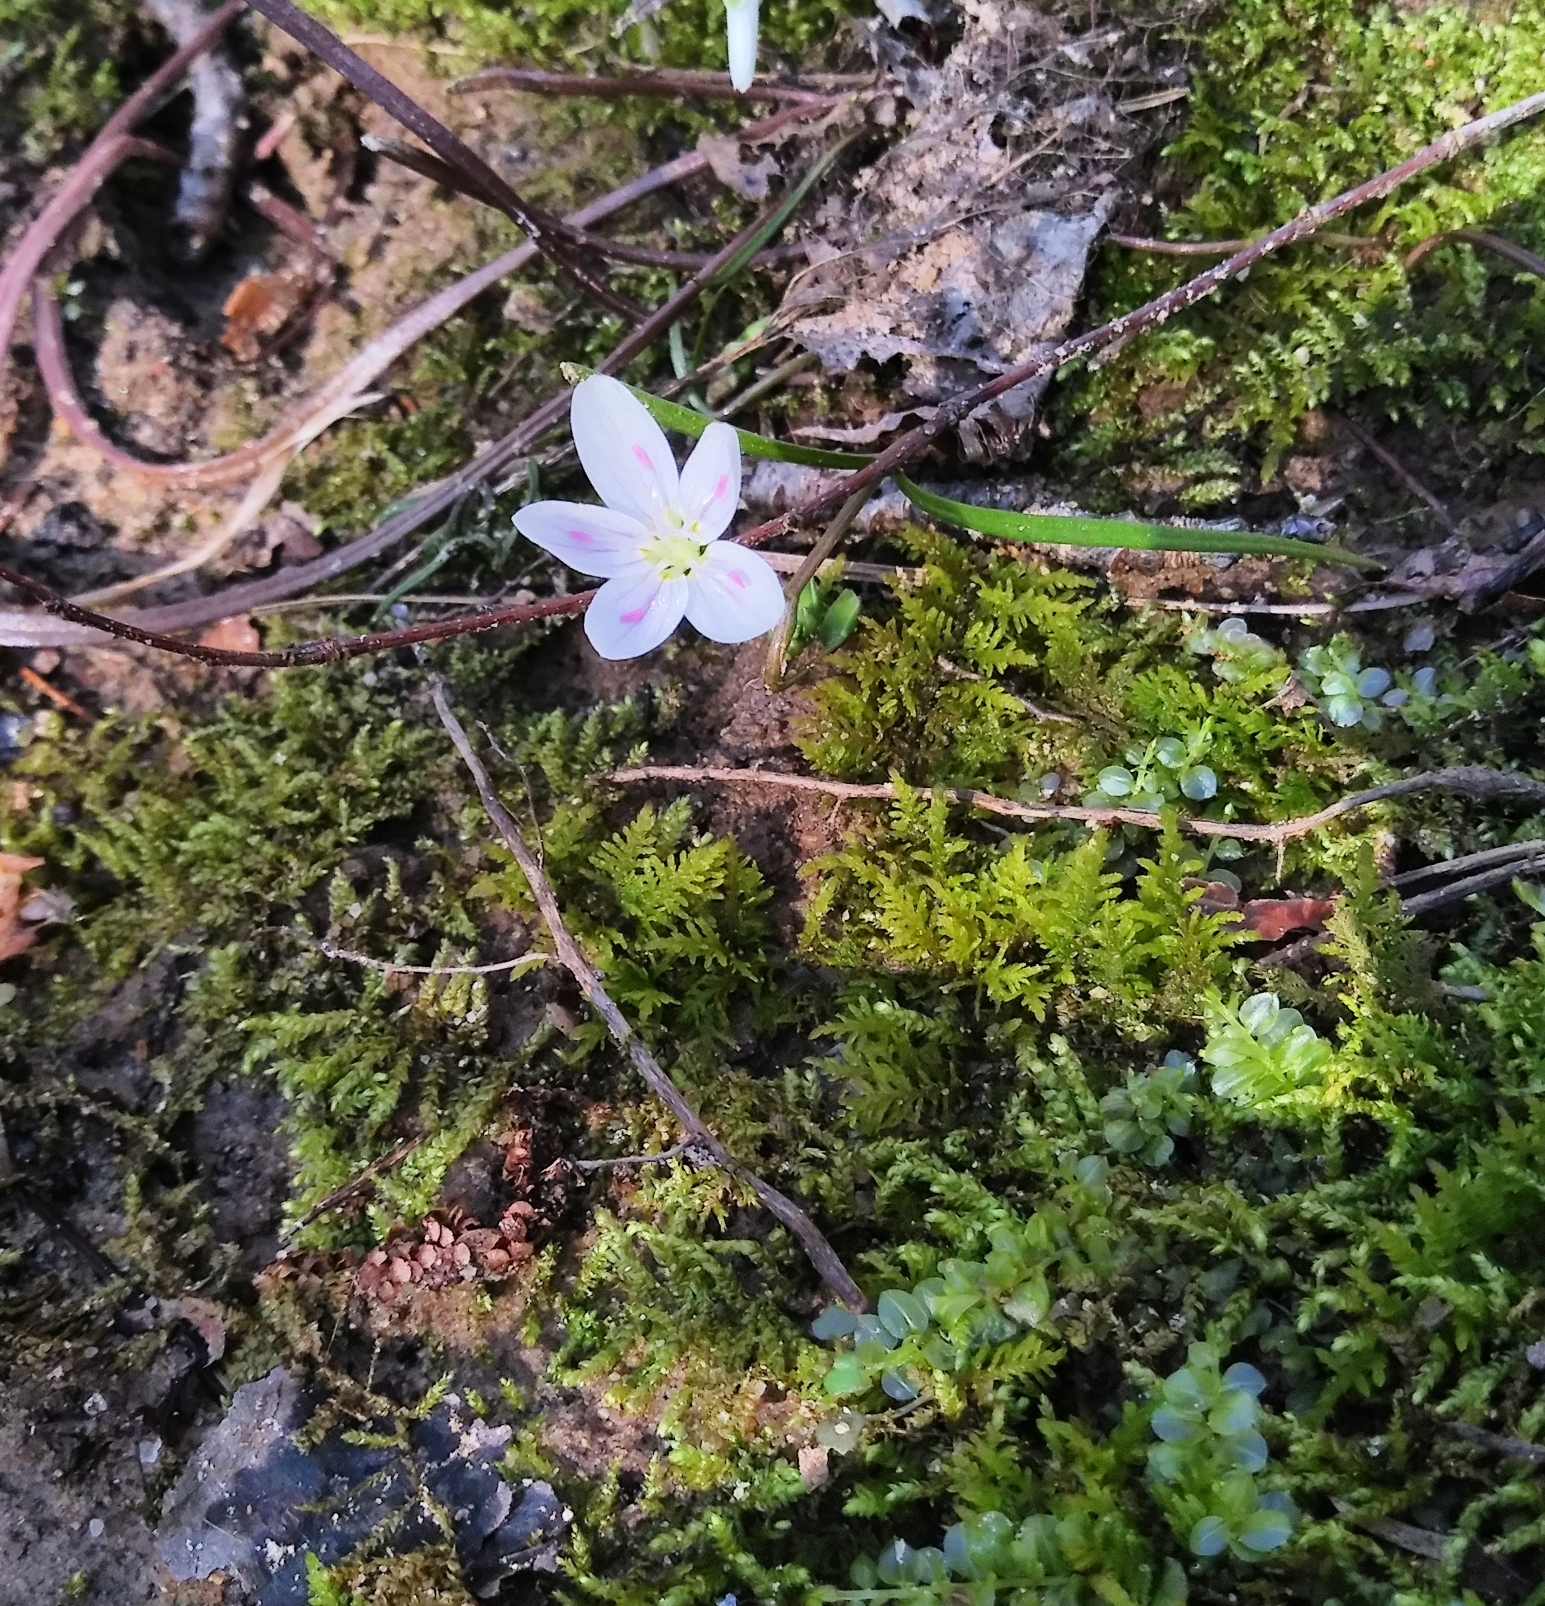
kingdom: Plantae
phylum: Tracheophyta
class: Magnoliopsida
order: Caryophyllales
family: Montiaceae
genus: Claytonia
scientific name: Claytonia virginica
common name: Virginia springbeauty
